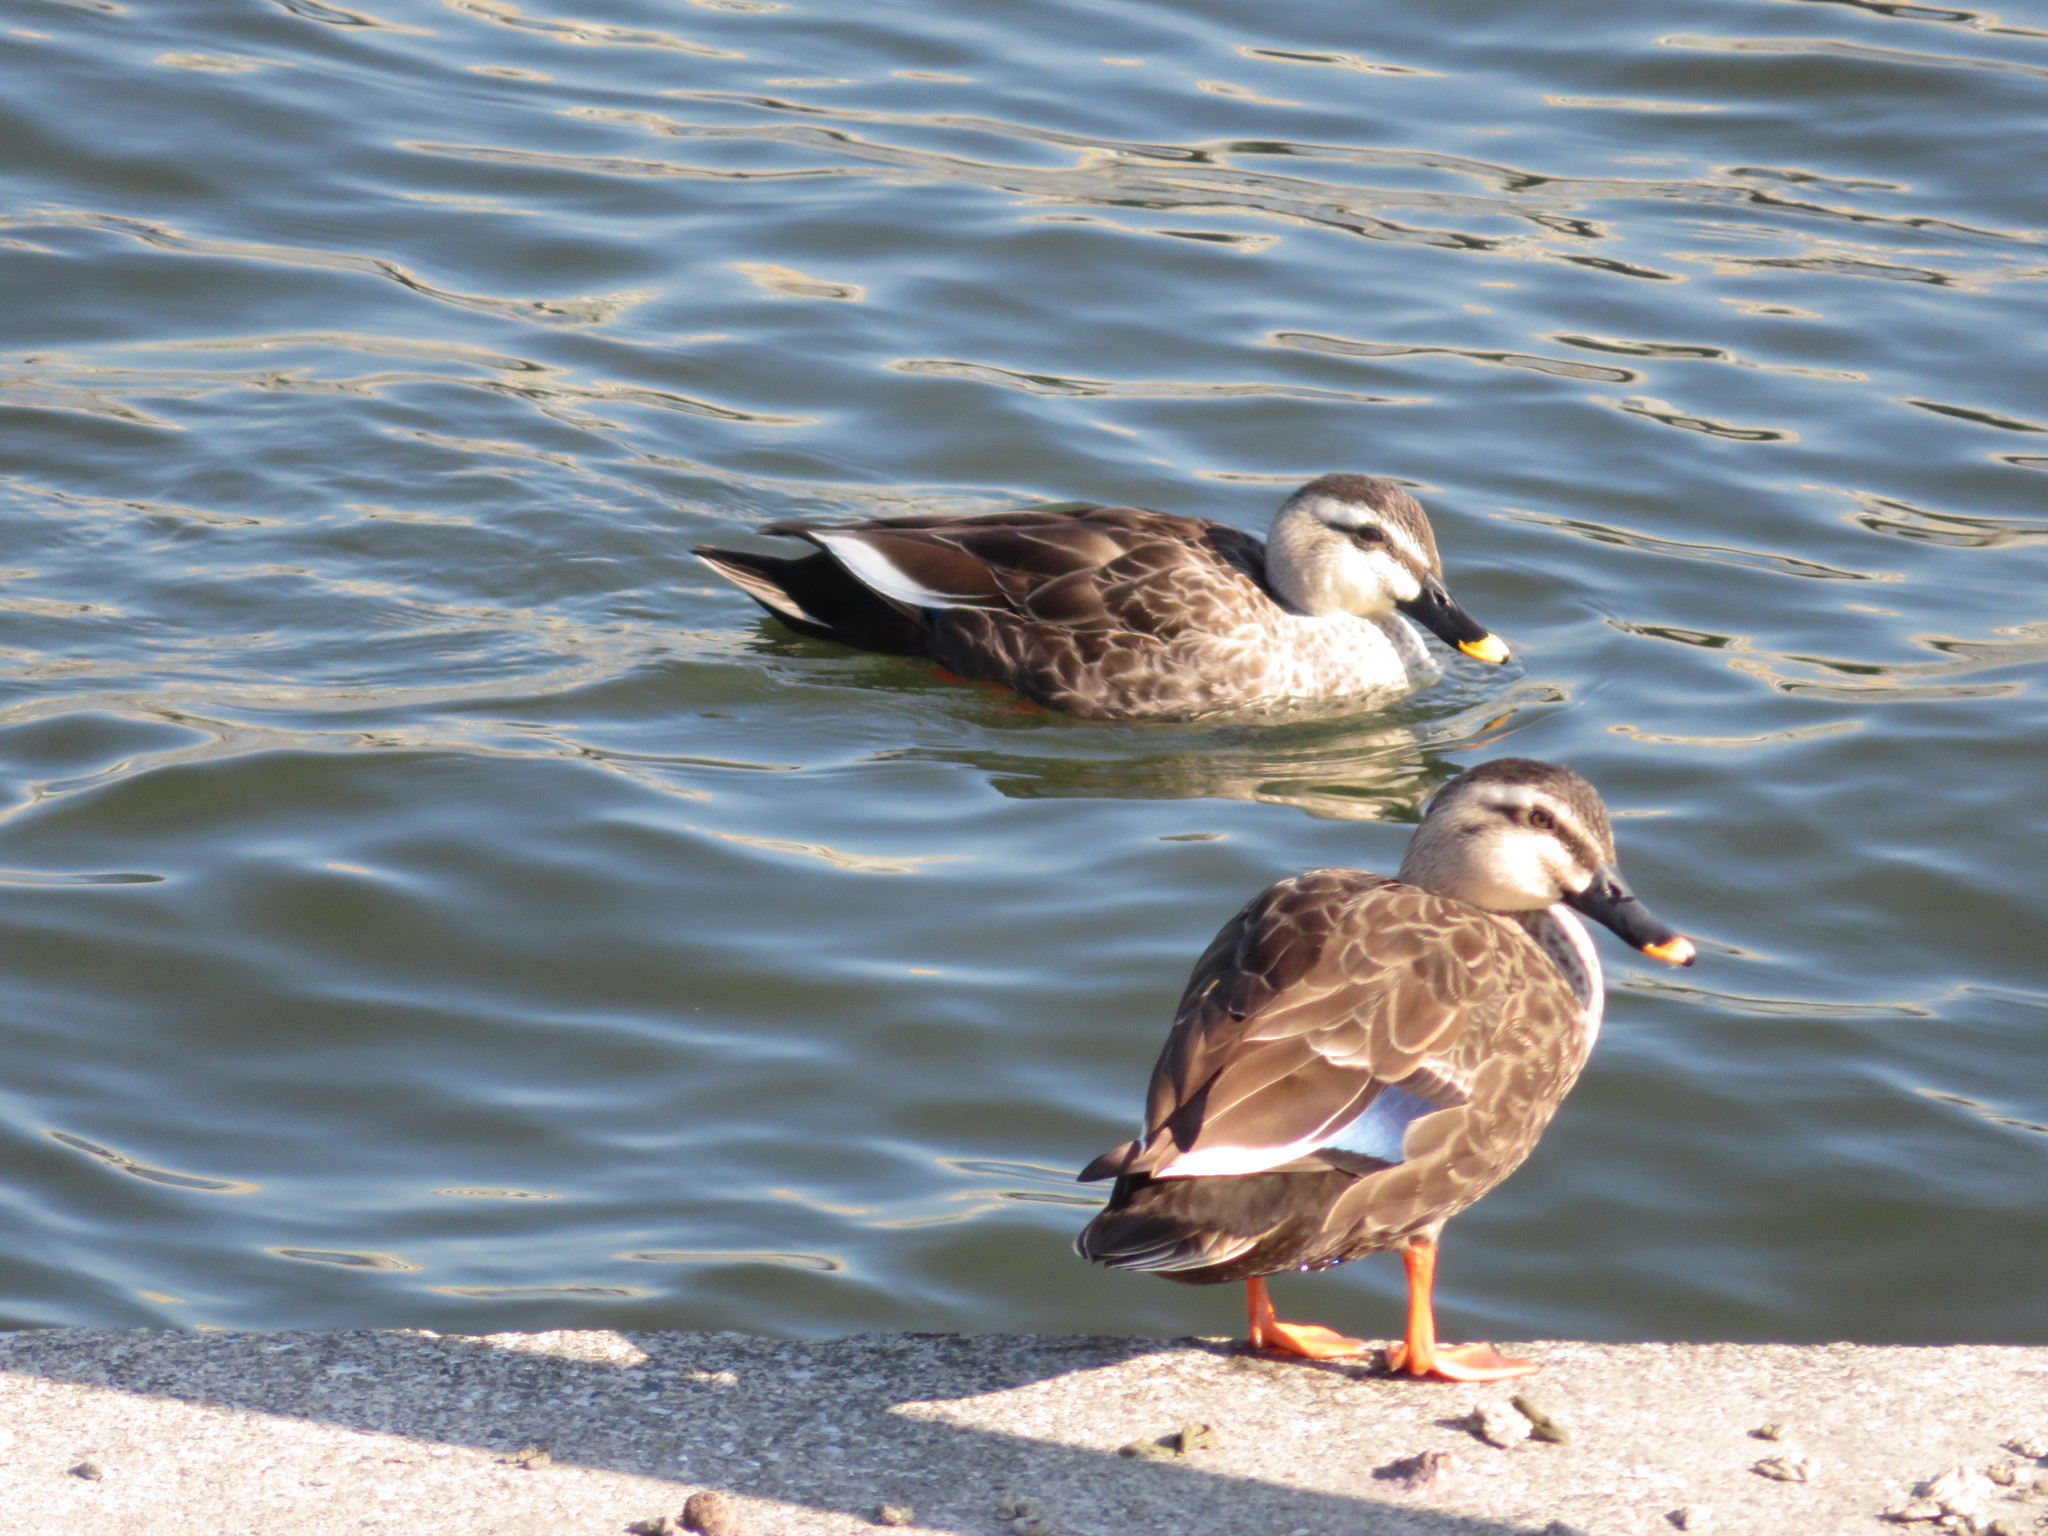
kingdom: Animalia
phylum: Chordata
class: Aves
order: Anseriformes
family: Anatidae
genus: Anas
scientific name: Anas zonorhyncha
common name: Eastern spot-billed duck
